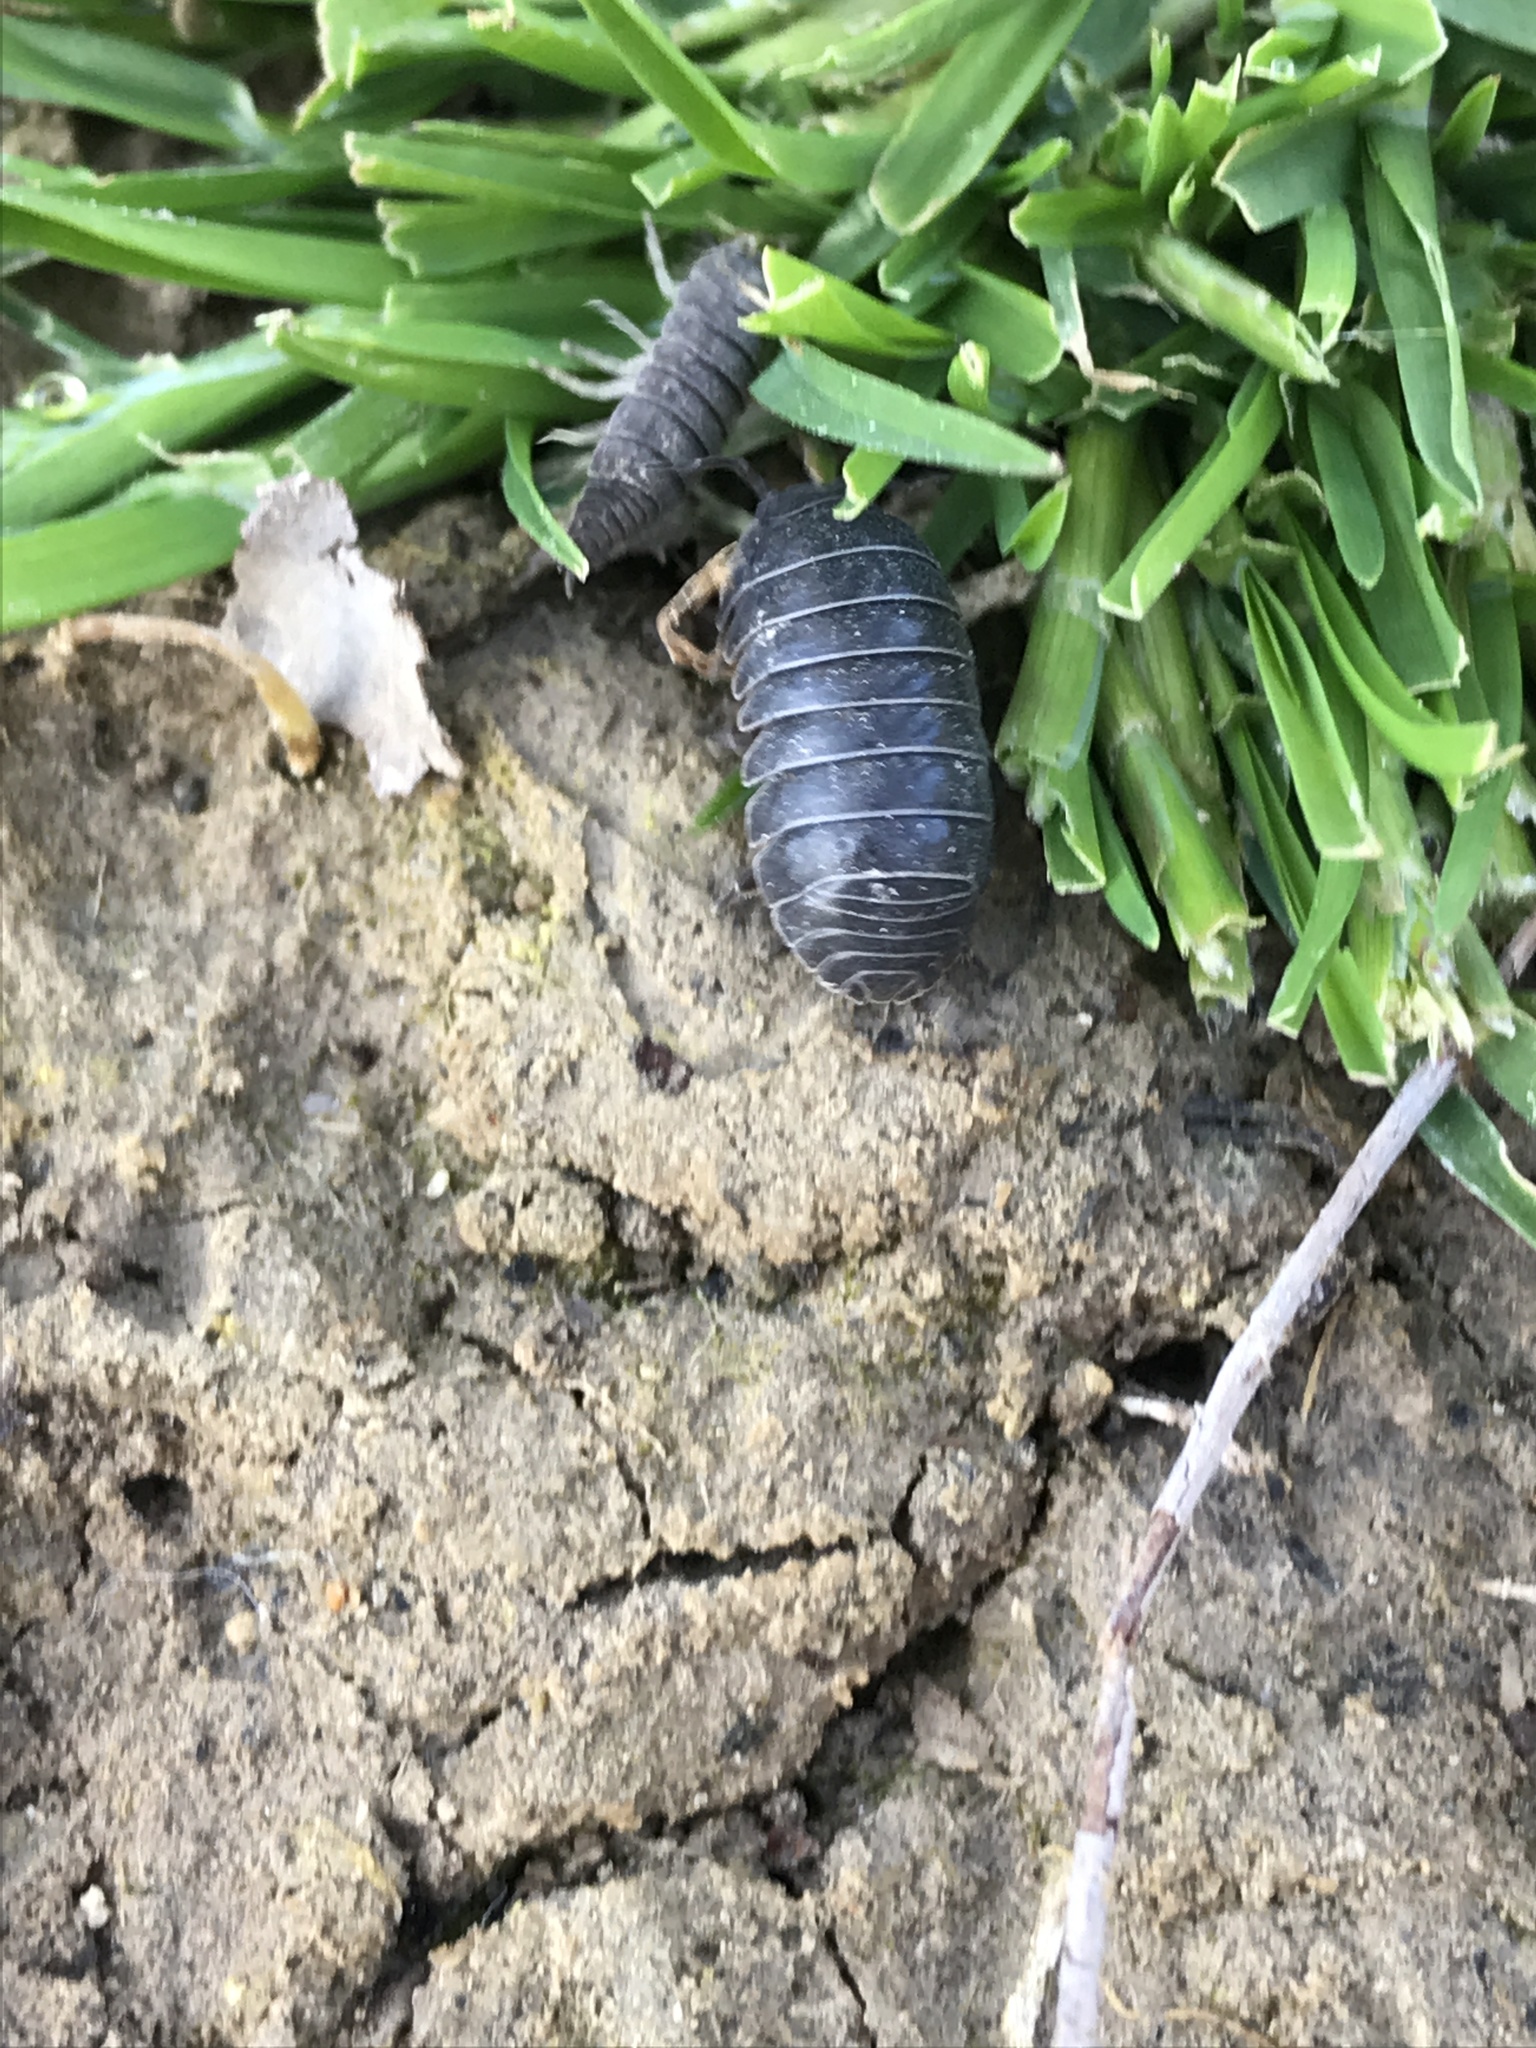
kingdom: Animalia
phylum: Arthropoda
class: Malacostraca
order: Isopoda
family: Armadillidiidae
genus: Armadillidium
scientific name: Armadillidium vulgare
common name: Common pill woodlouse
